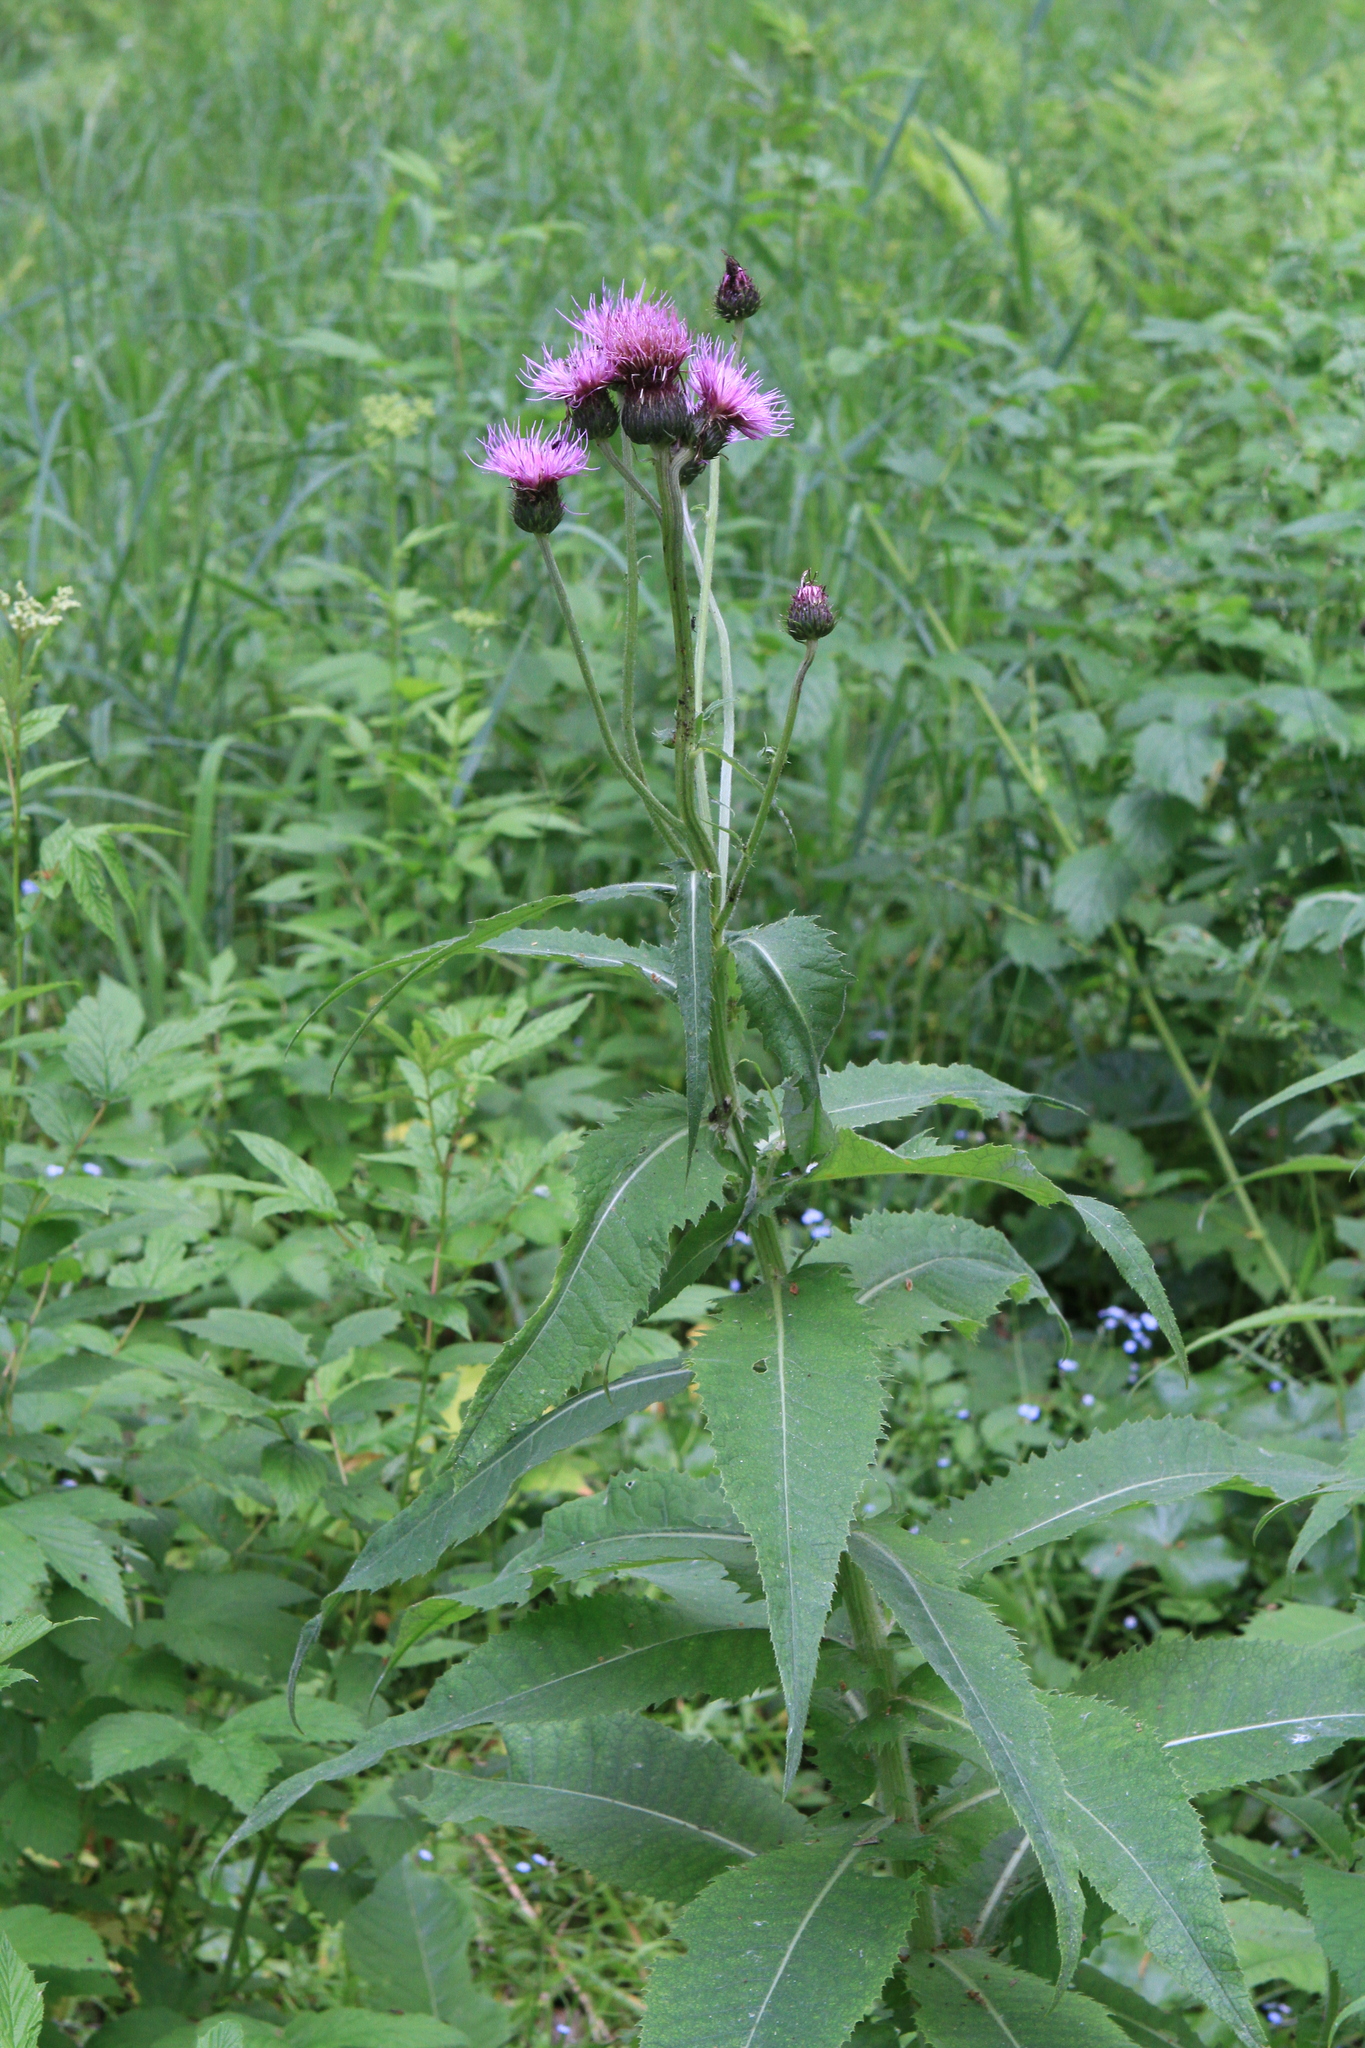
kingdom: Plantae
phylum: Tracheophyta
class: Magnoliopsida
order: Asterales
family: Asteraceae
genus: Cirsium
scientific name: Cirsium helenioides
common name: Melancholy thistle
